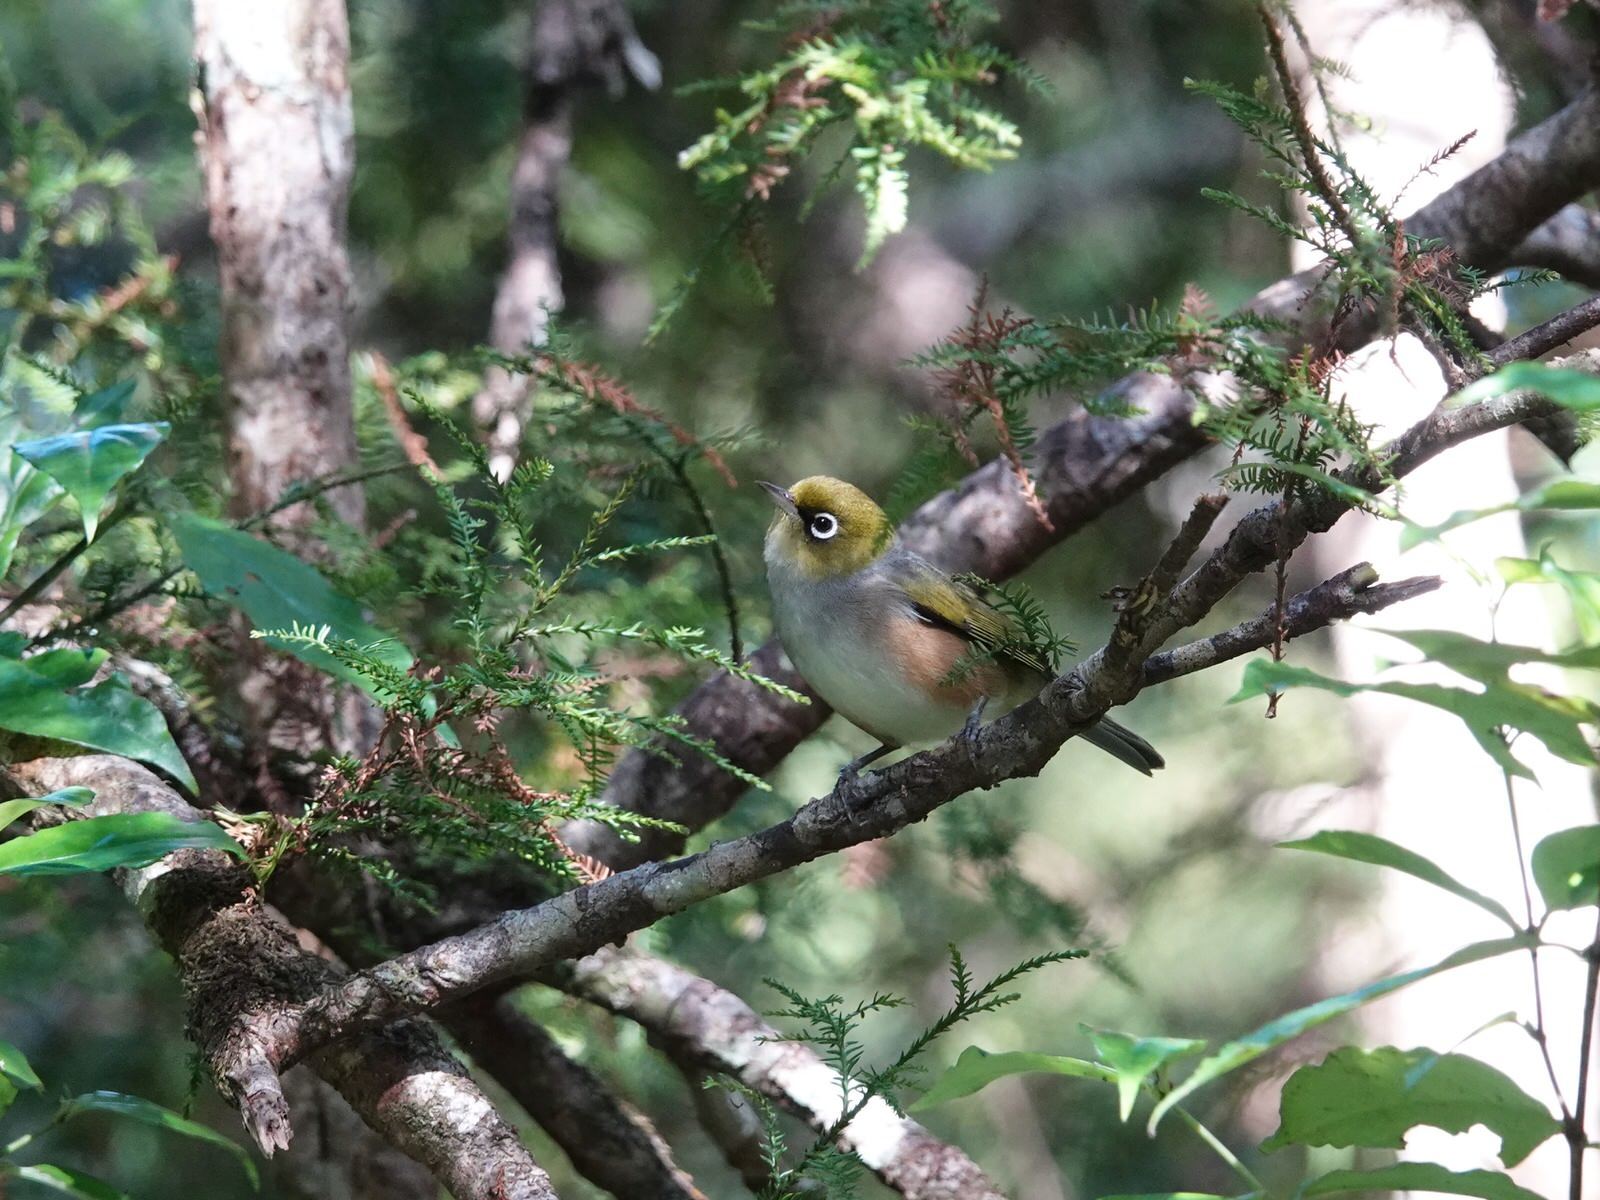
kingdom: Animalia
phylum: Chordata
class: Aves
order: Passeriformes
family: Zosteropidae
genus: Zosterops
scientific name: Zosterops lateralis
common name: Silvereye
